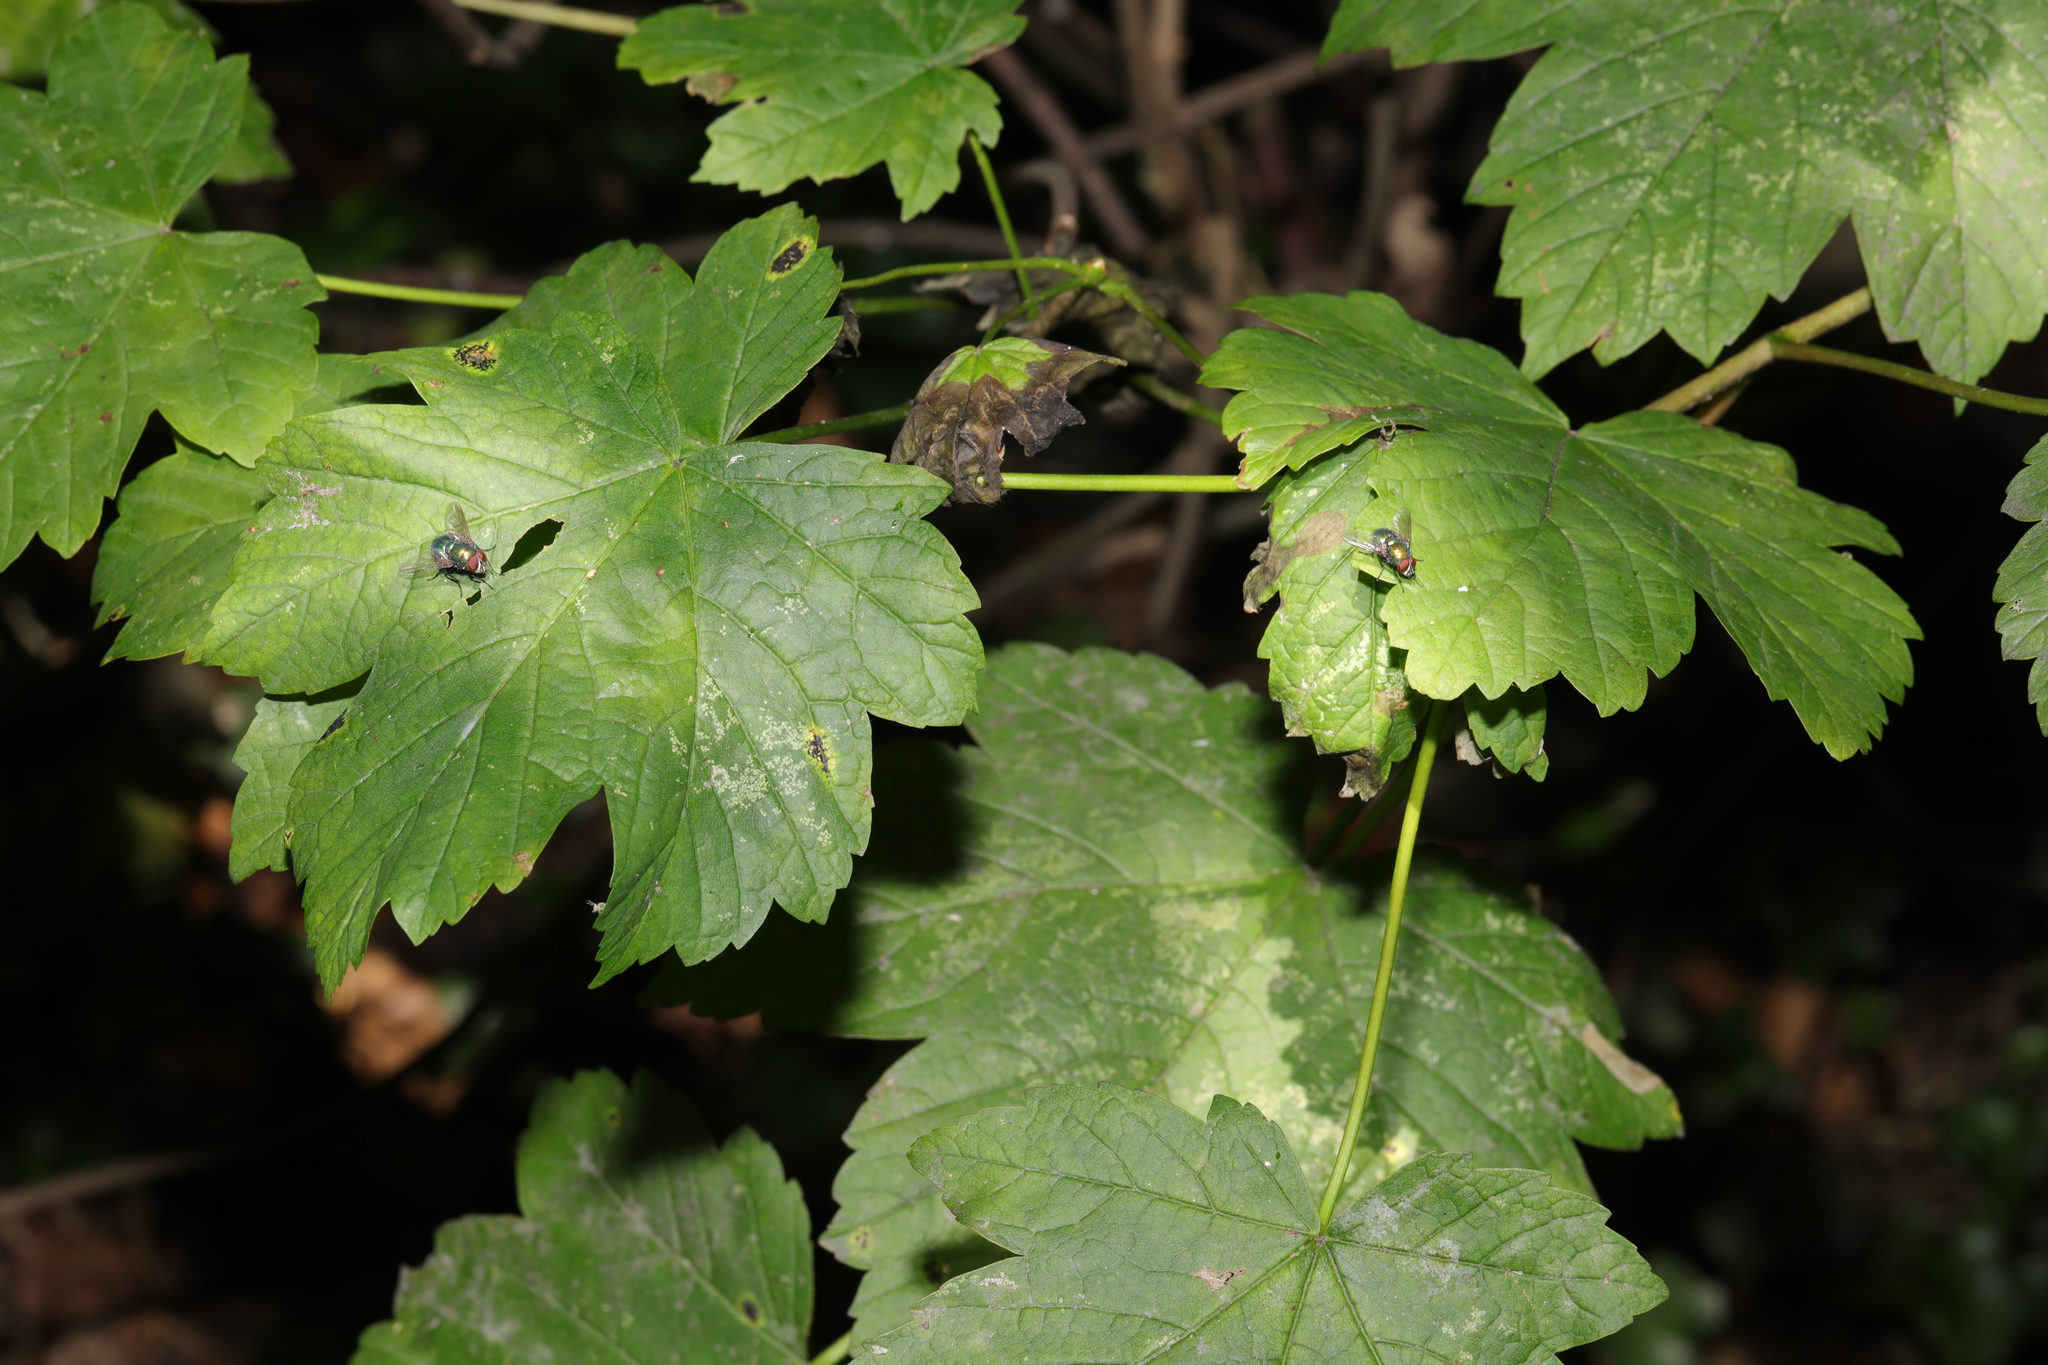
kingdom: Plantae
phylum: Tracheophyta
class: Magnoliopsida
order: Sapindales
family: Sapindaceae
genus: Acer
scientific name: Acer pseudoplatanus
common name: Sycamore
